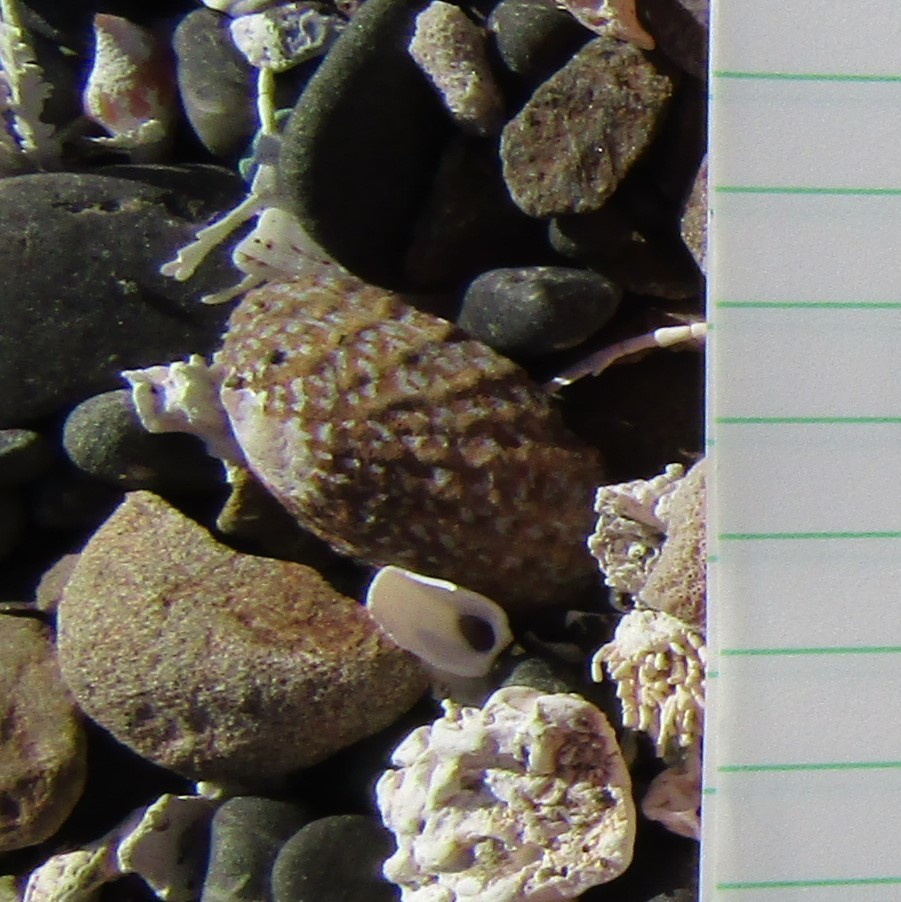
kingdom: Animalia
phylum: Mollusca
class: Gastropoda
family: Nacellidae
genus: Cellana
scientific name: Cellana denticulata
